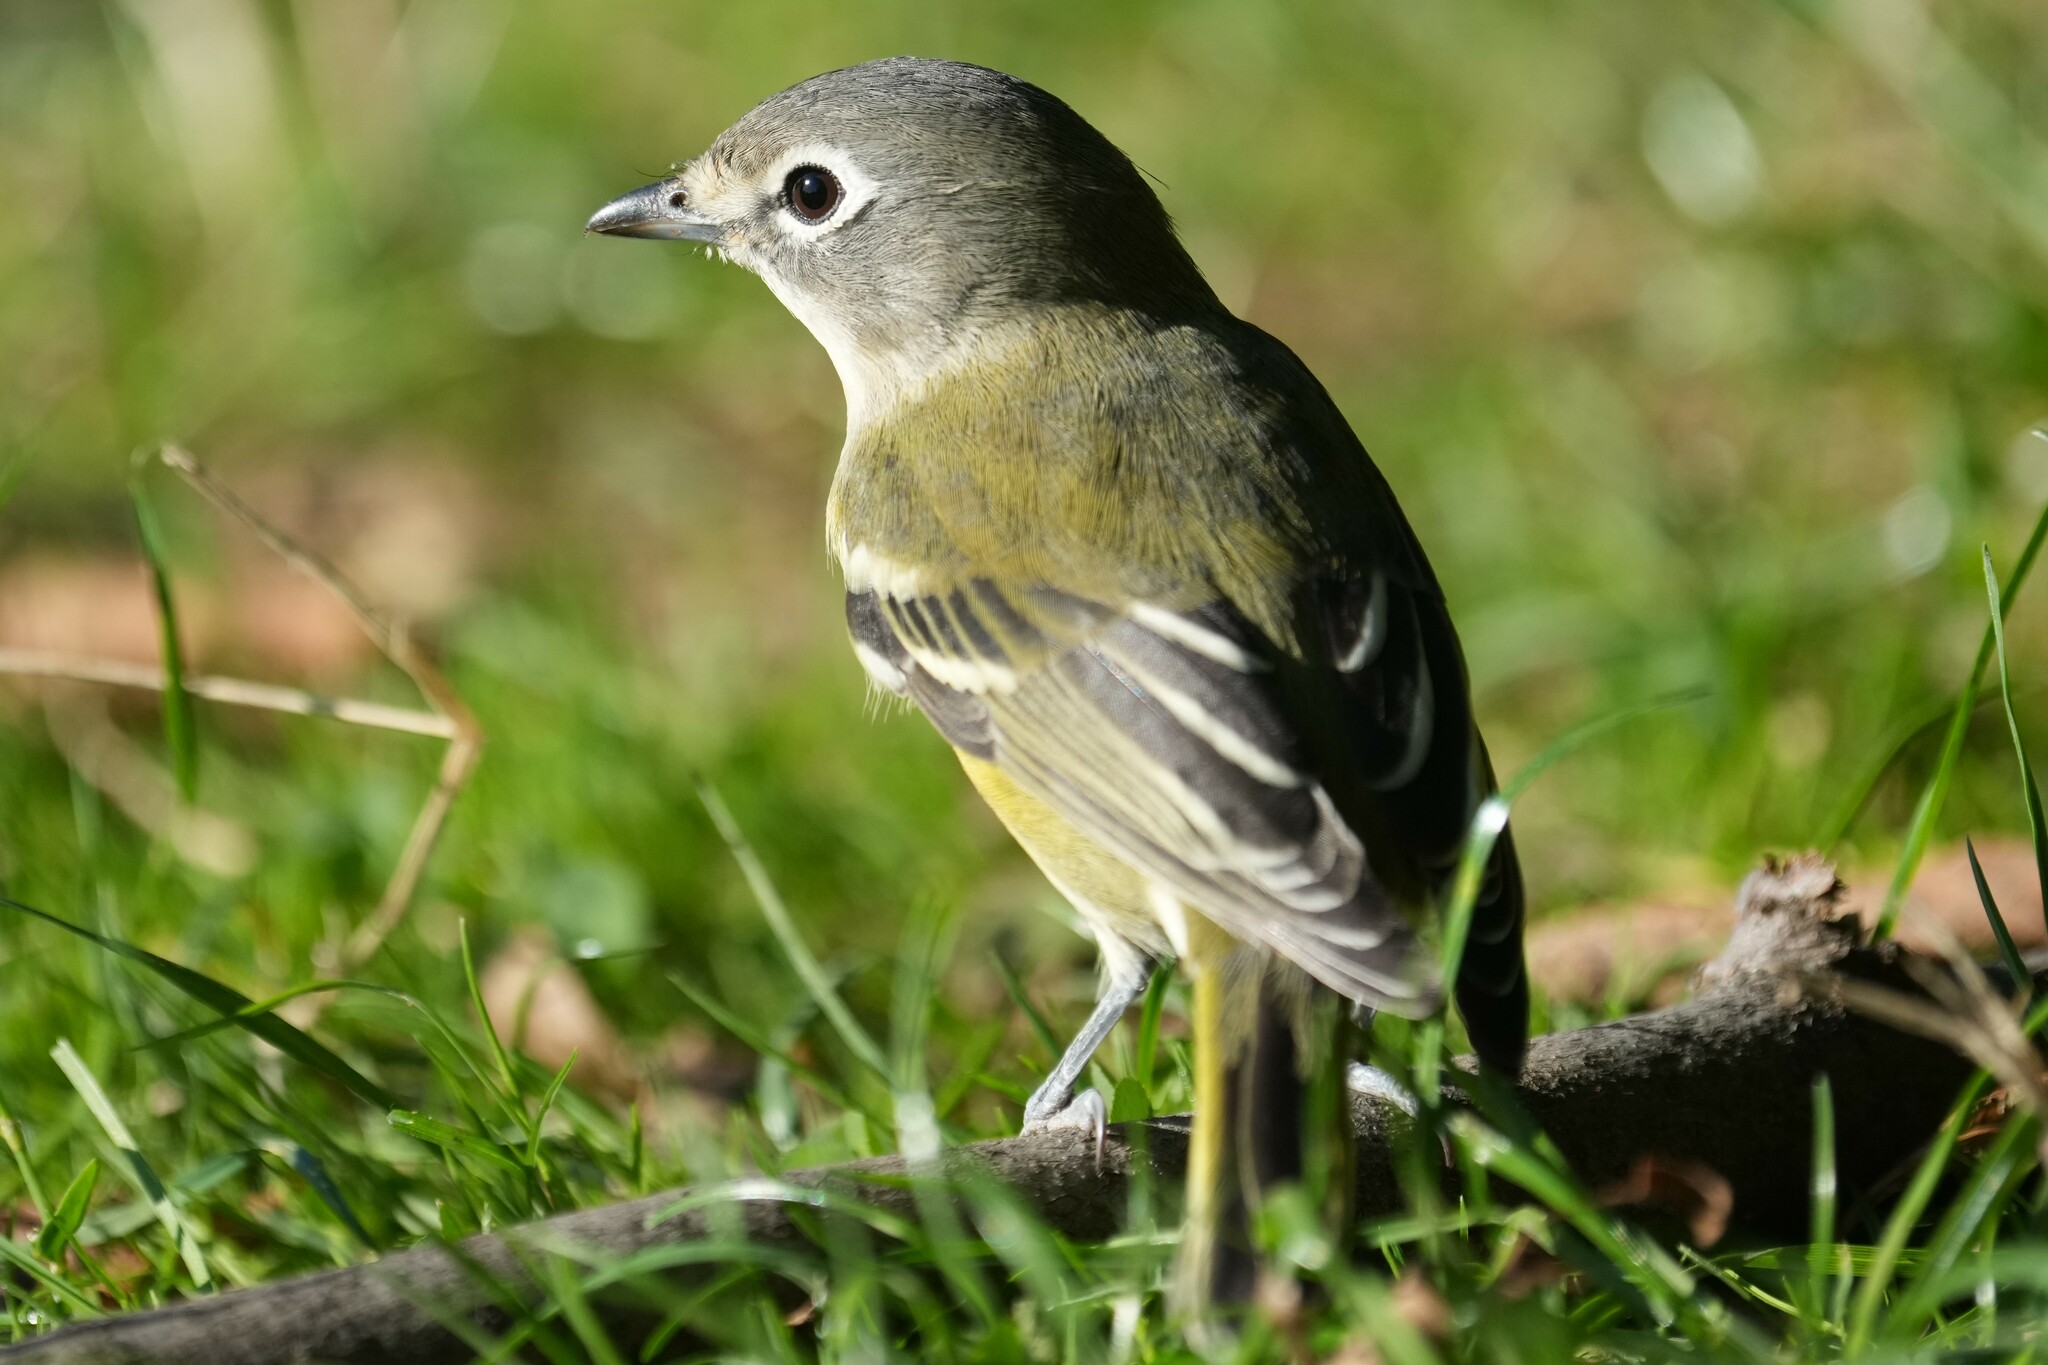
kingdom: Animalia
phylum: Chordata
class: Aves
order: Passeriformes
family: Vireonidae
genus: Vireo
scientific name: Vireo solitarius
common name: Blue-headed vireo
